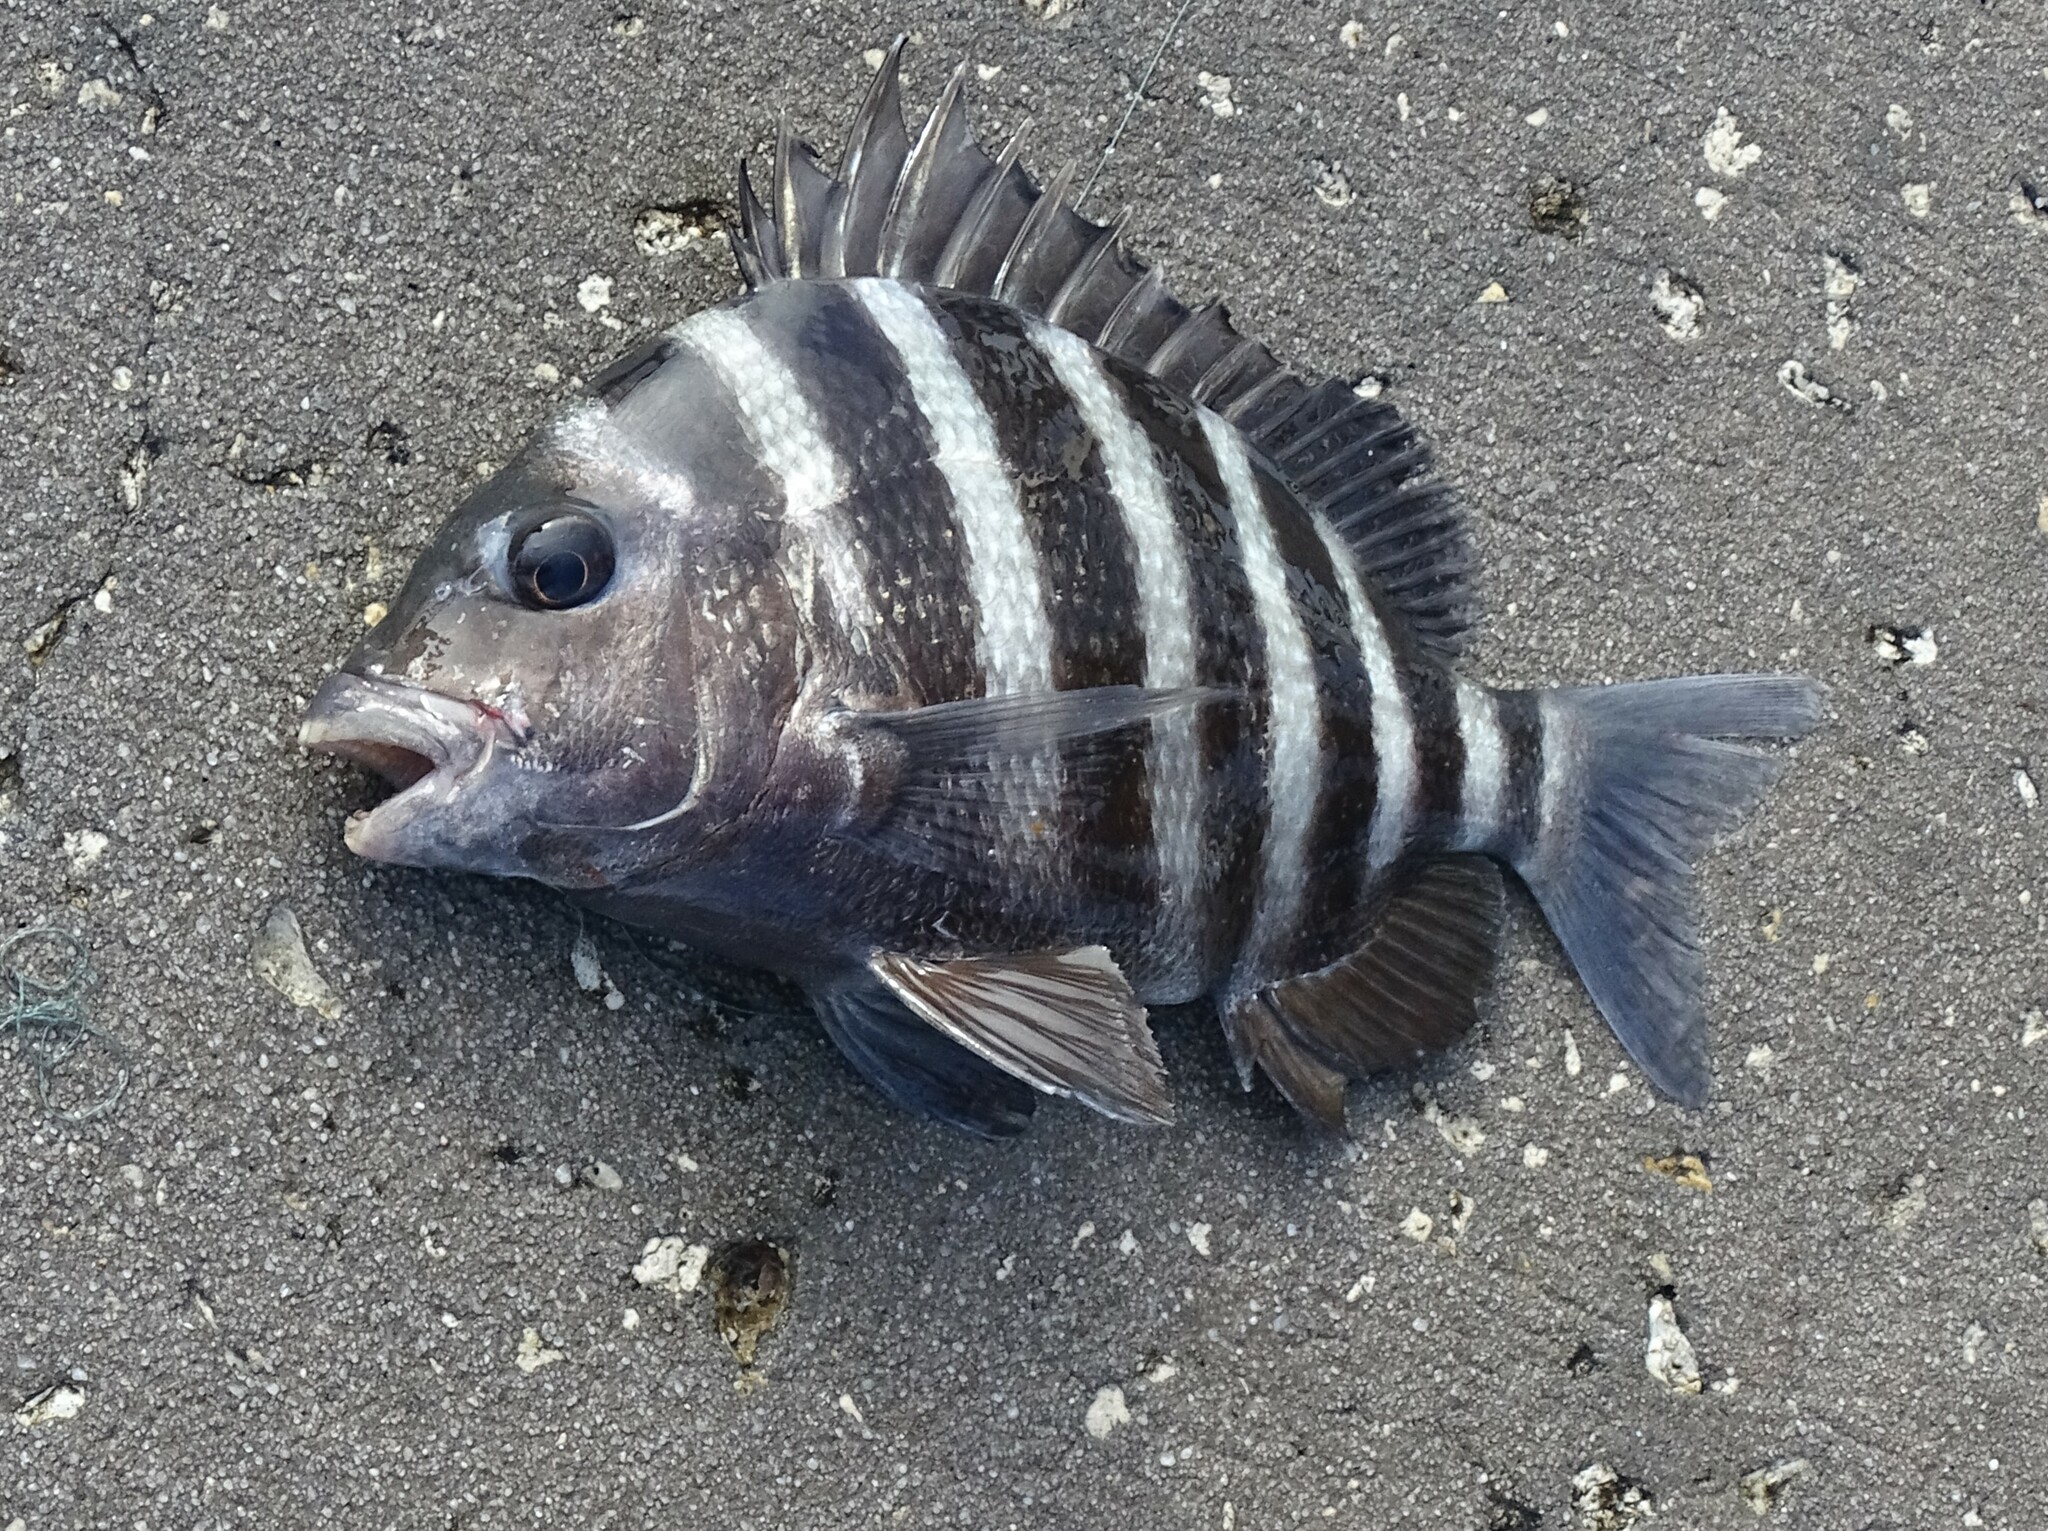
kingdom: Animalia
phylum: Chordata
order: Perciformes
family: Sparidae
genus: Archosargus
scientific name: Archosargus probatocephalus
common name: Sheepshead
